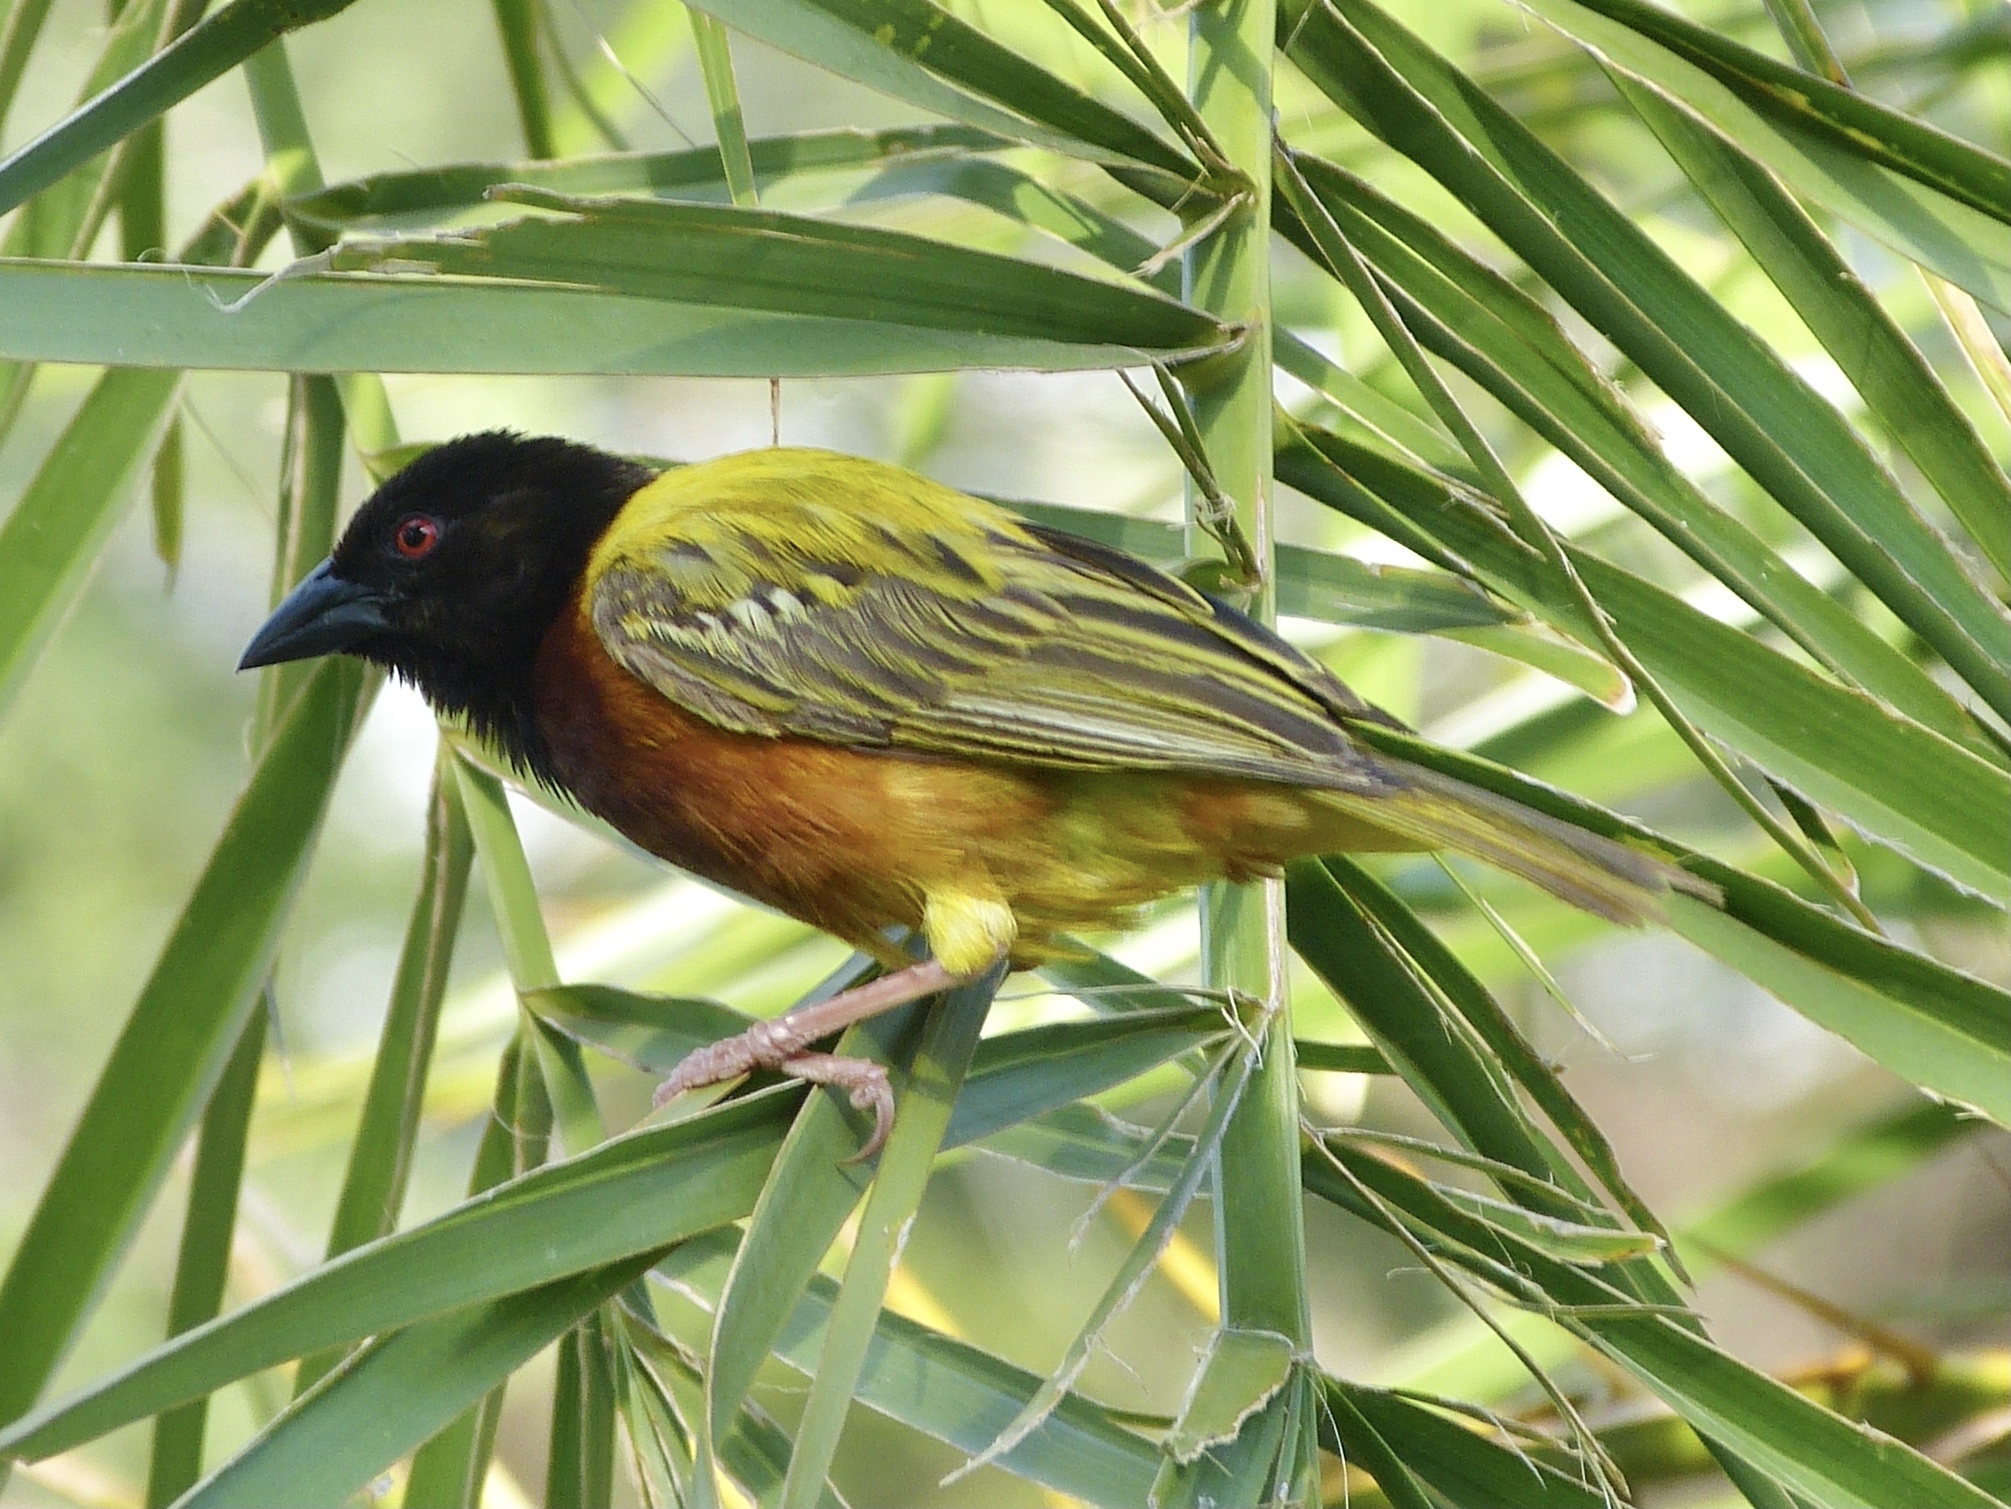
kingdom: Animalia
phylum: Chordata
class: Aves
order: Passeriformes
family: Ploceidae
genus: Ploceus
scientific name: Ploceus jacksoni
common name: Golden-backed weaver
